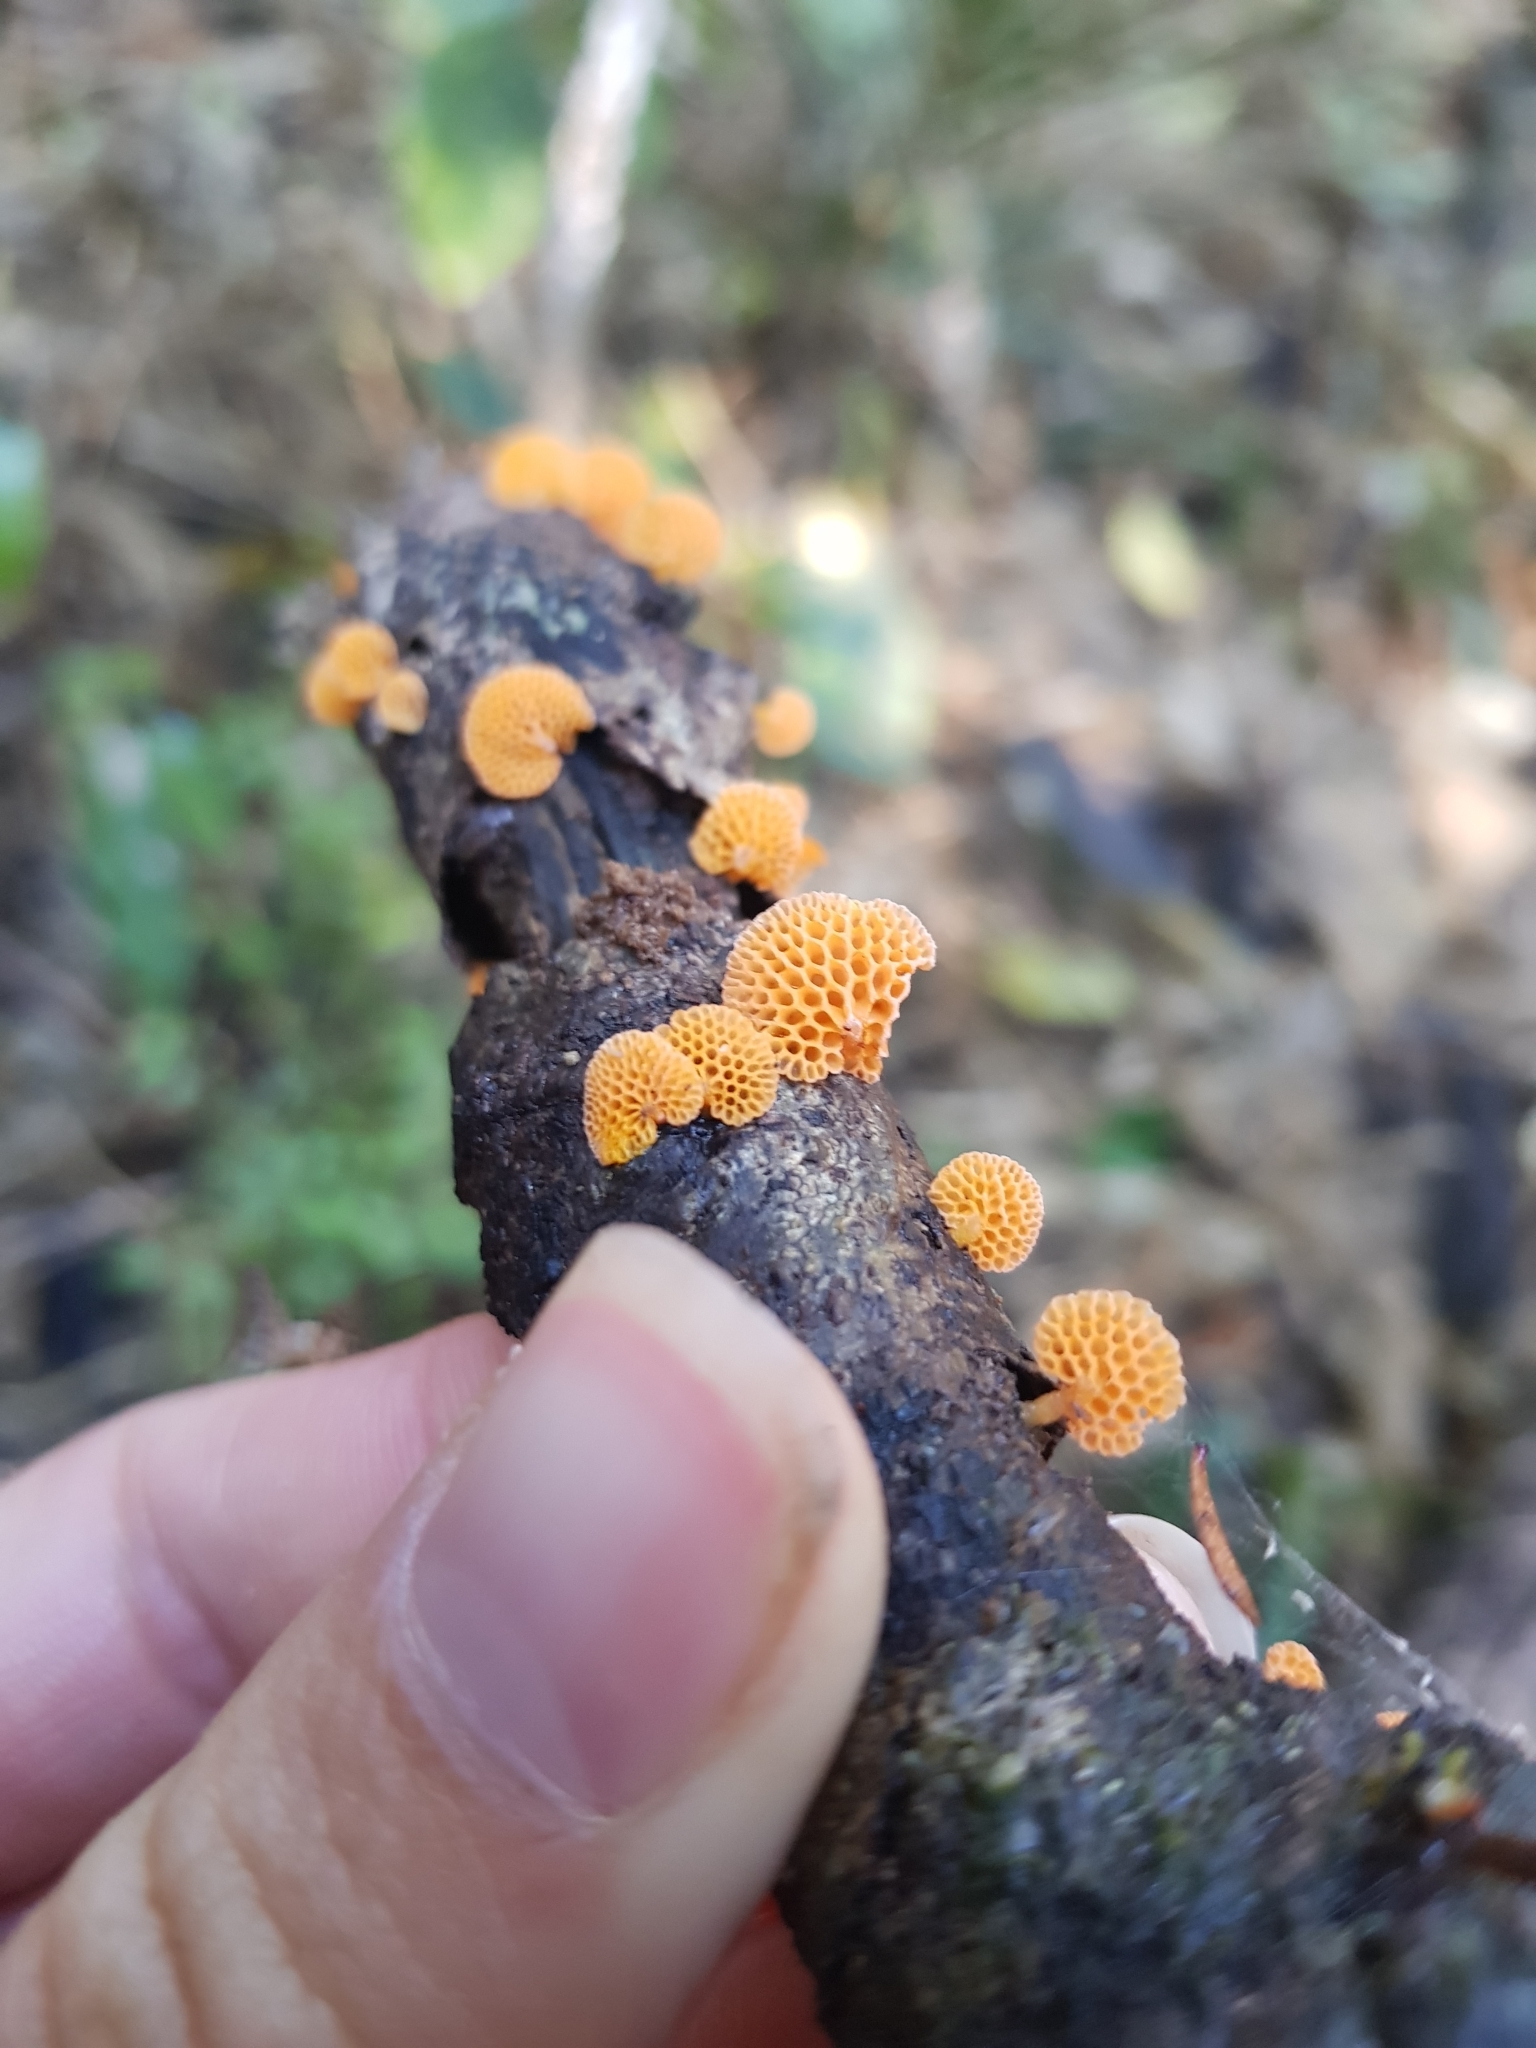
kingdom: Fungi
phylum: Basidiomycota
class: Agaricomycetes
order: Agaricales
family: Mycenaceae
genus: Favolaschia
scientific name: Favolaschia claudopus
